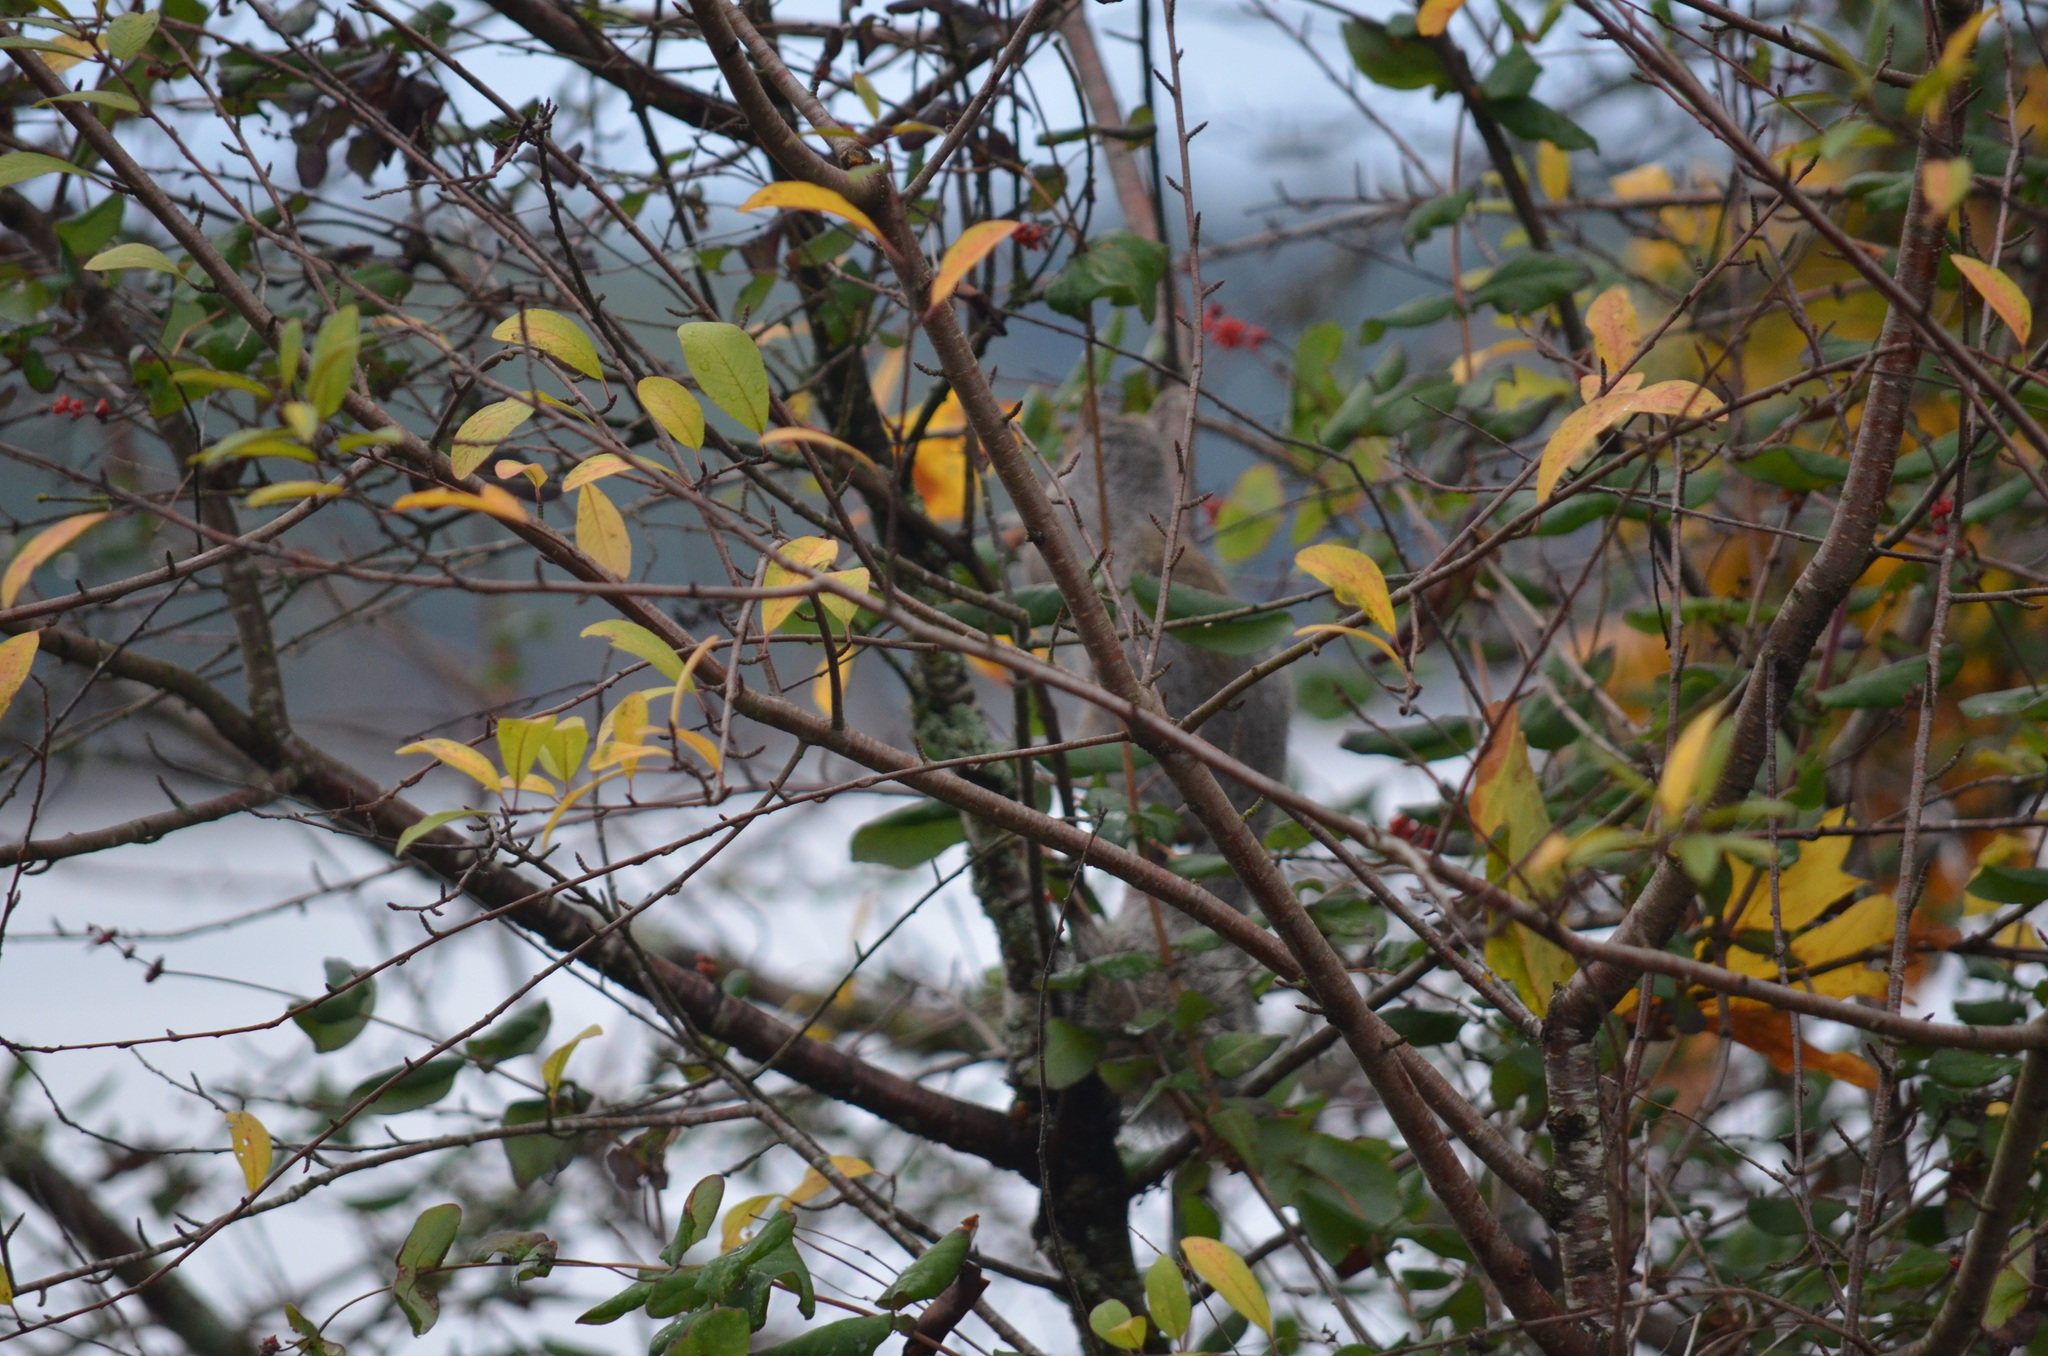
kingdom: Animalia
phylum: Chordata
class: Mammalia
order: Rodentia
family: Sciuridae
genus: Sciurus
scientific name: Sciurus carolinensis
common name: Eastern gray squirrel
